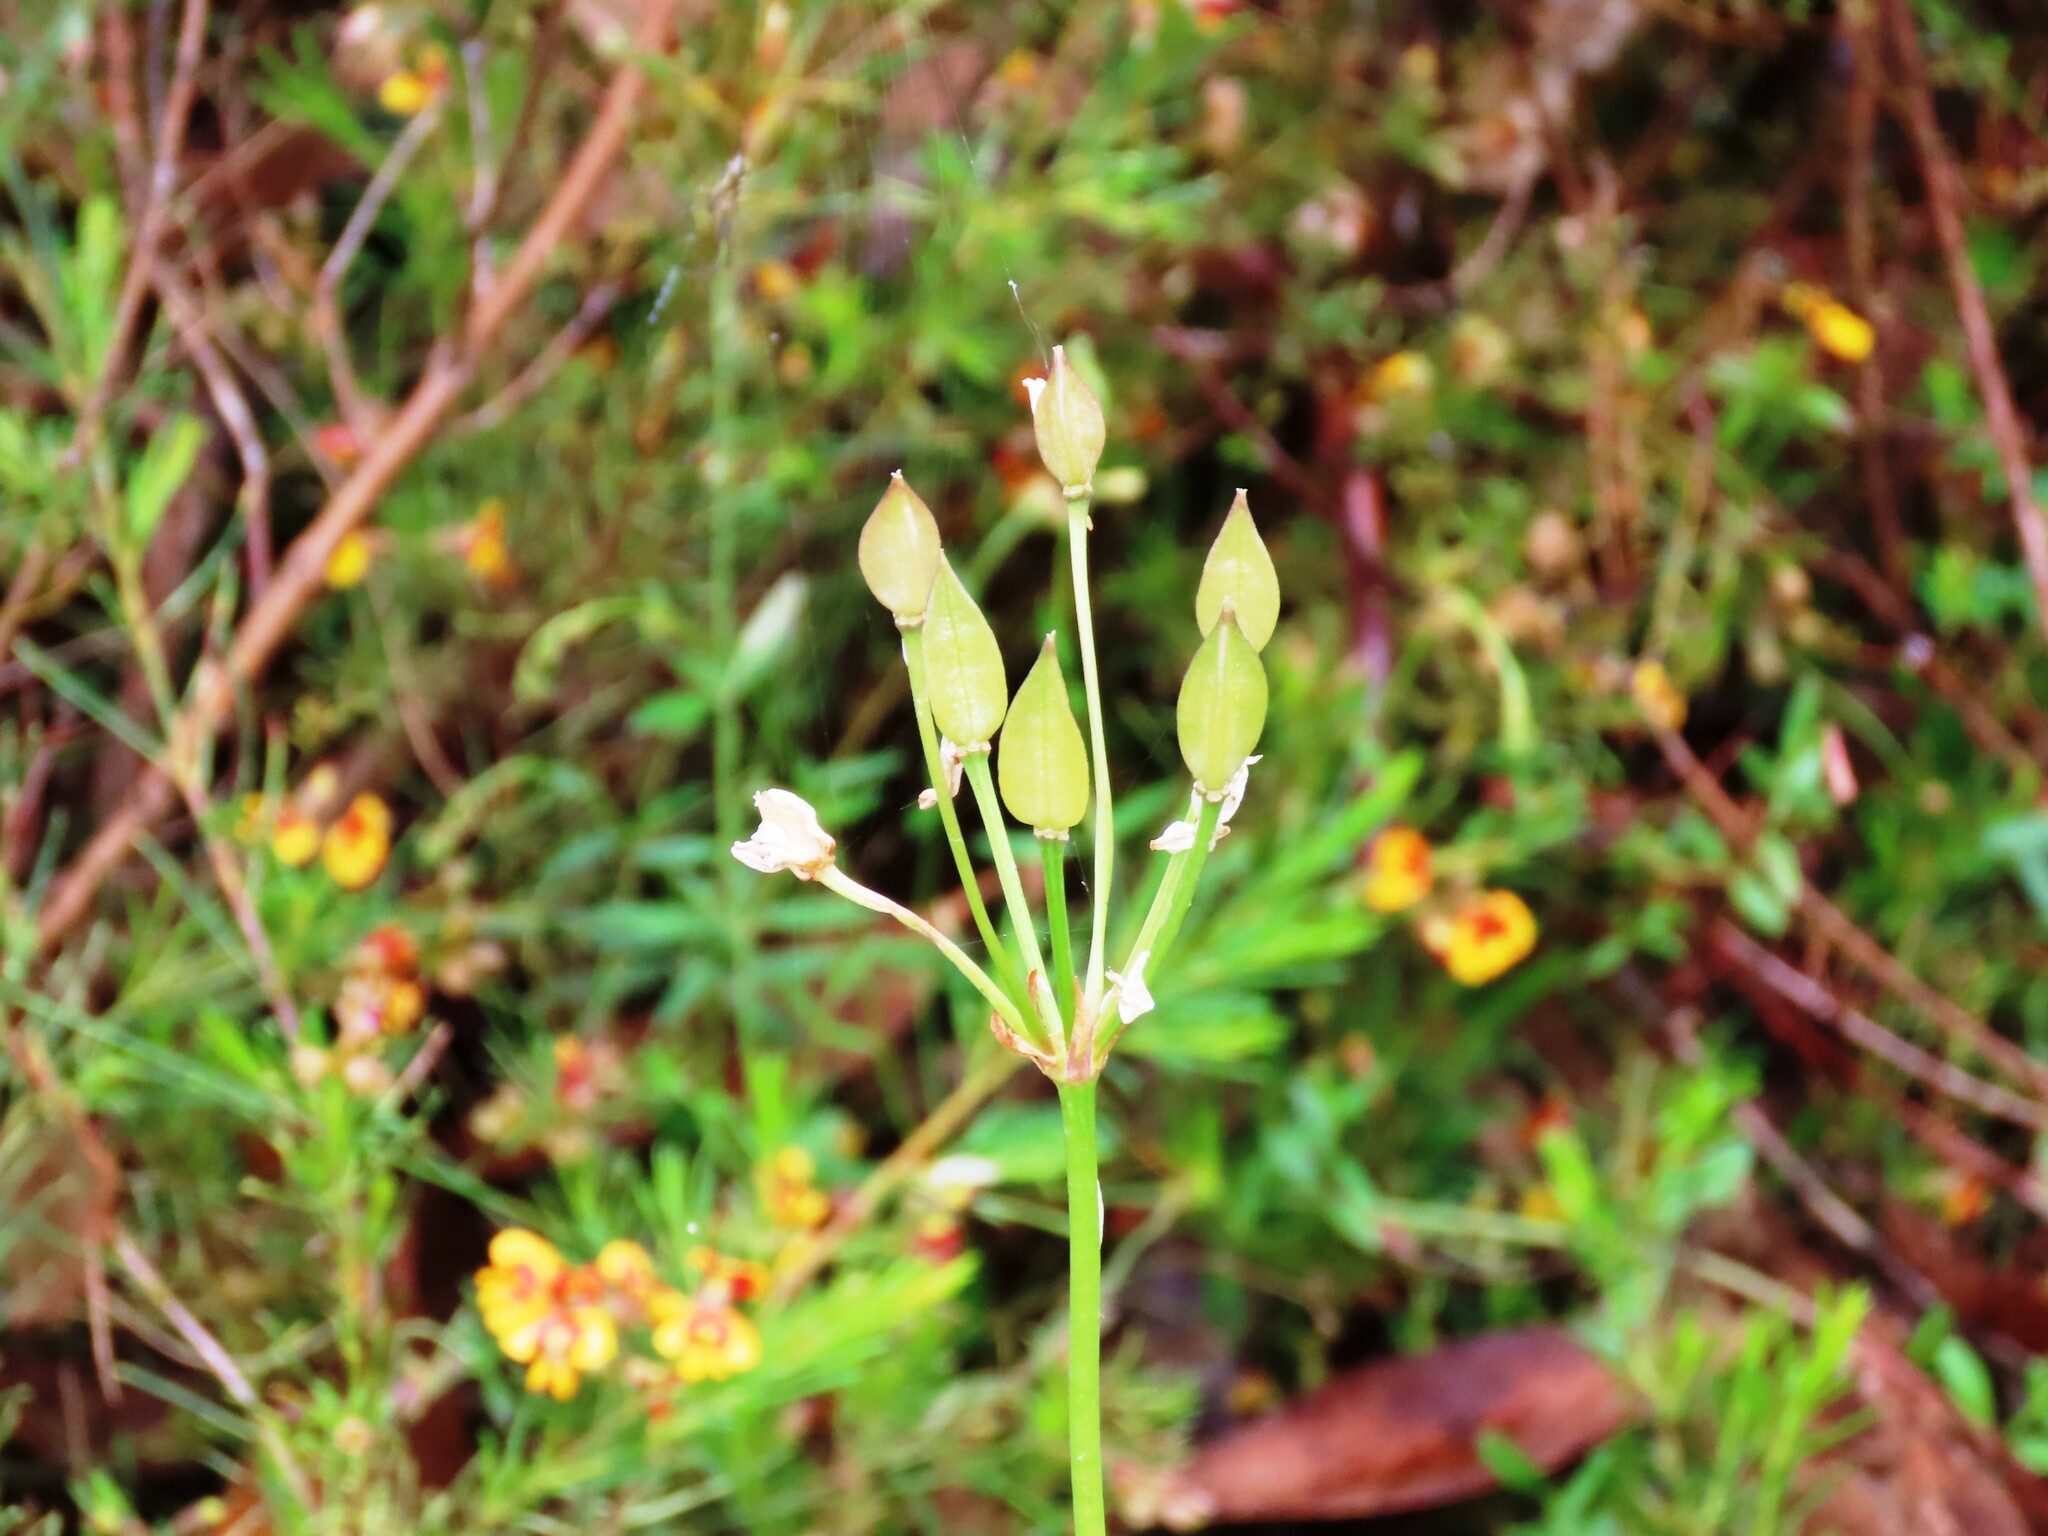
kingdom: Plantae
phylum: Tracheophyta
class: Liliopsida
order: Liliales
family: Colchicaceae
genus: Burchardia
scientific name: Burchardia umbellata
